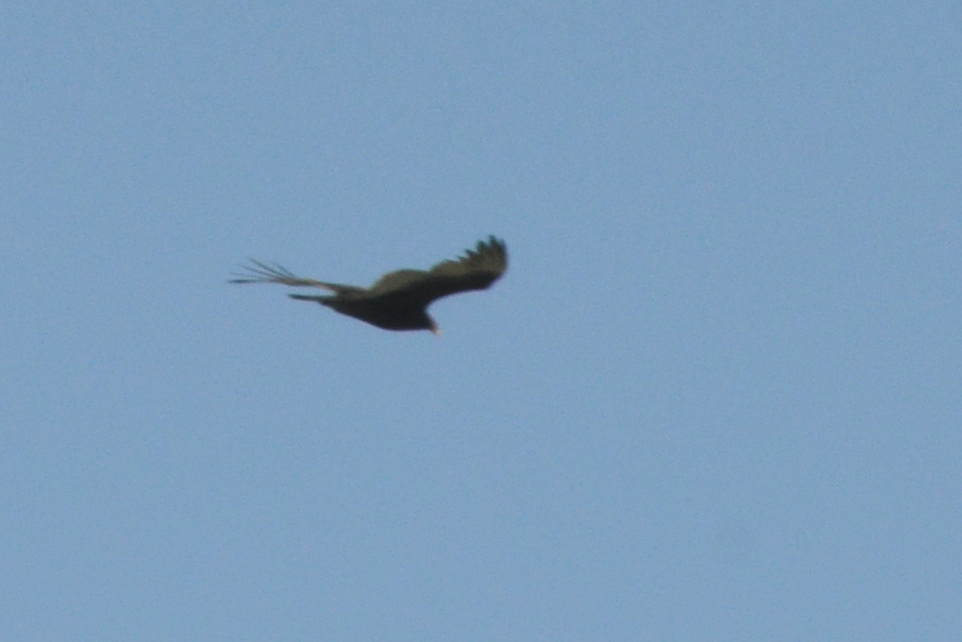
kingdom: Animalia
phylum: Chordata
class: Aves
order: Accipitriformes
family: Cathartidae
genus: Cathartes
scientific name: Cathartes aura
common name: Turkey vulture
